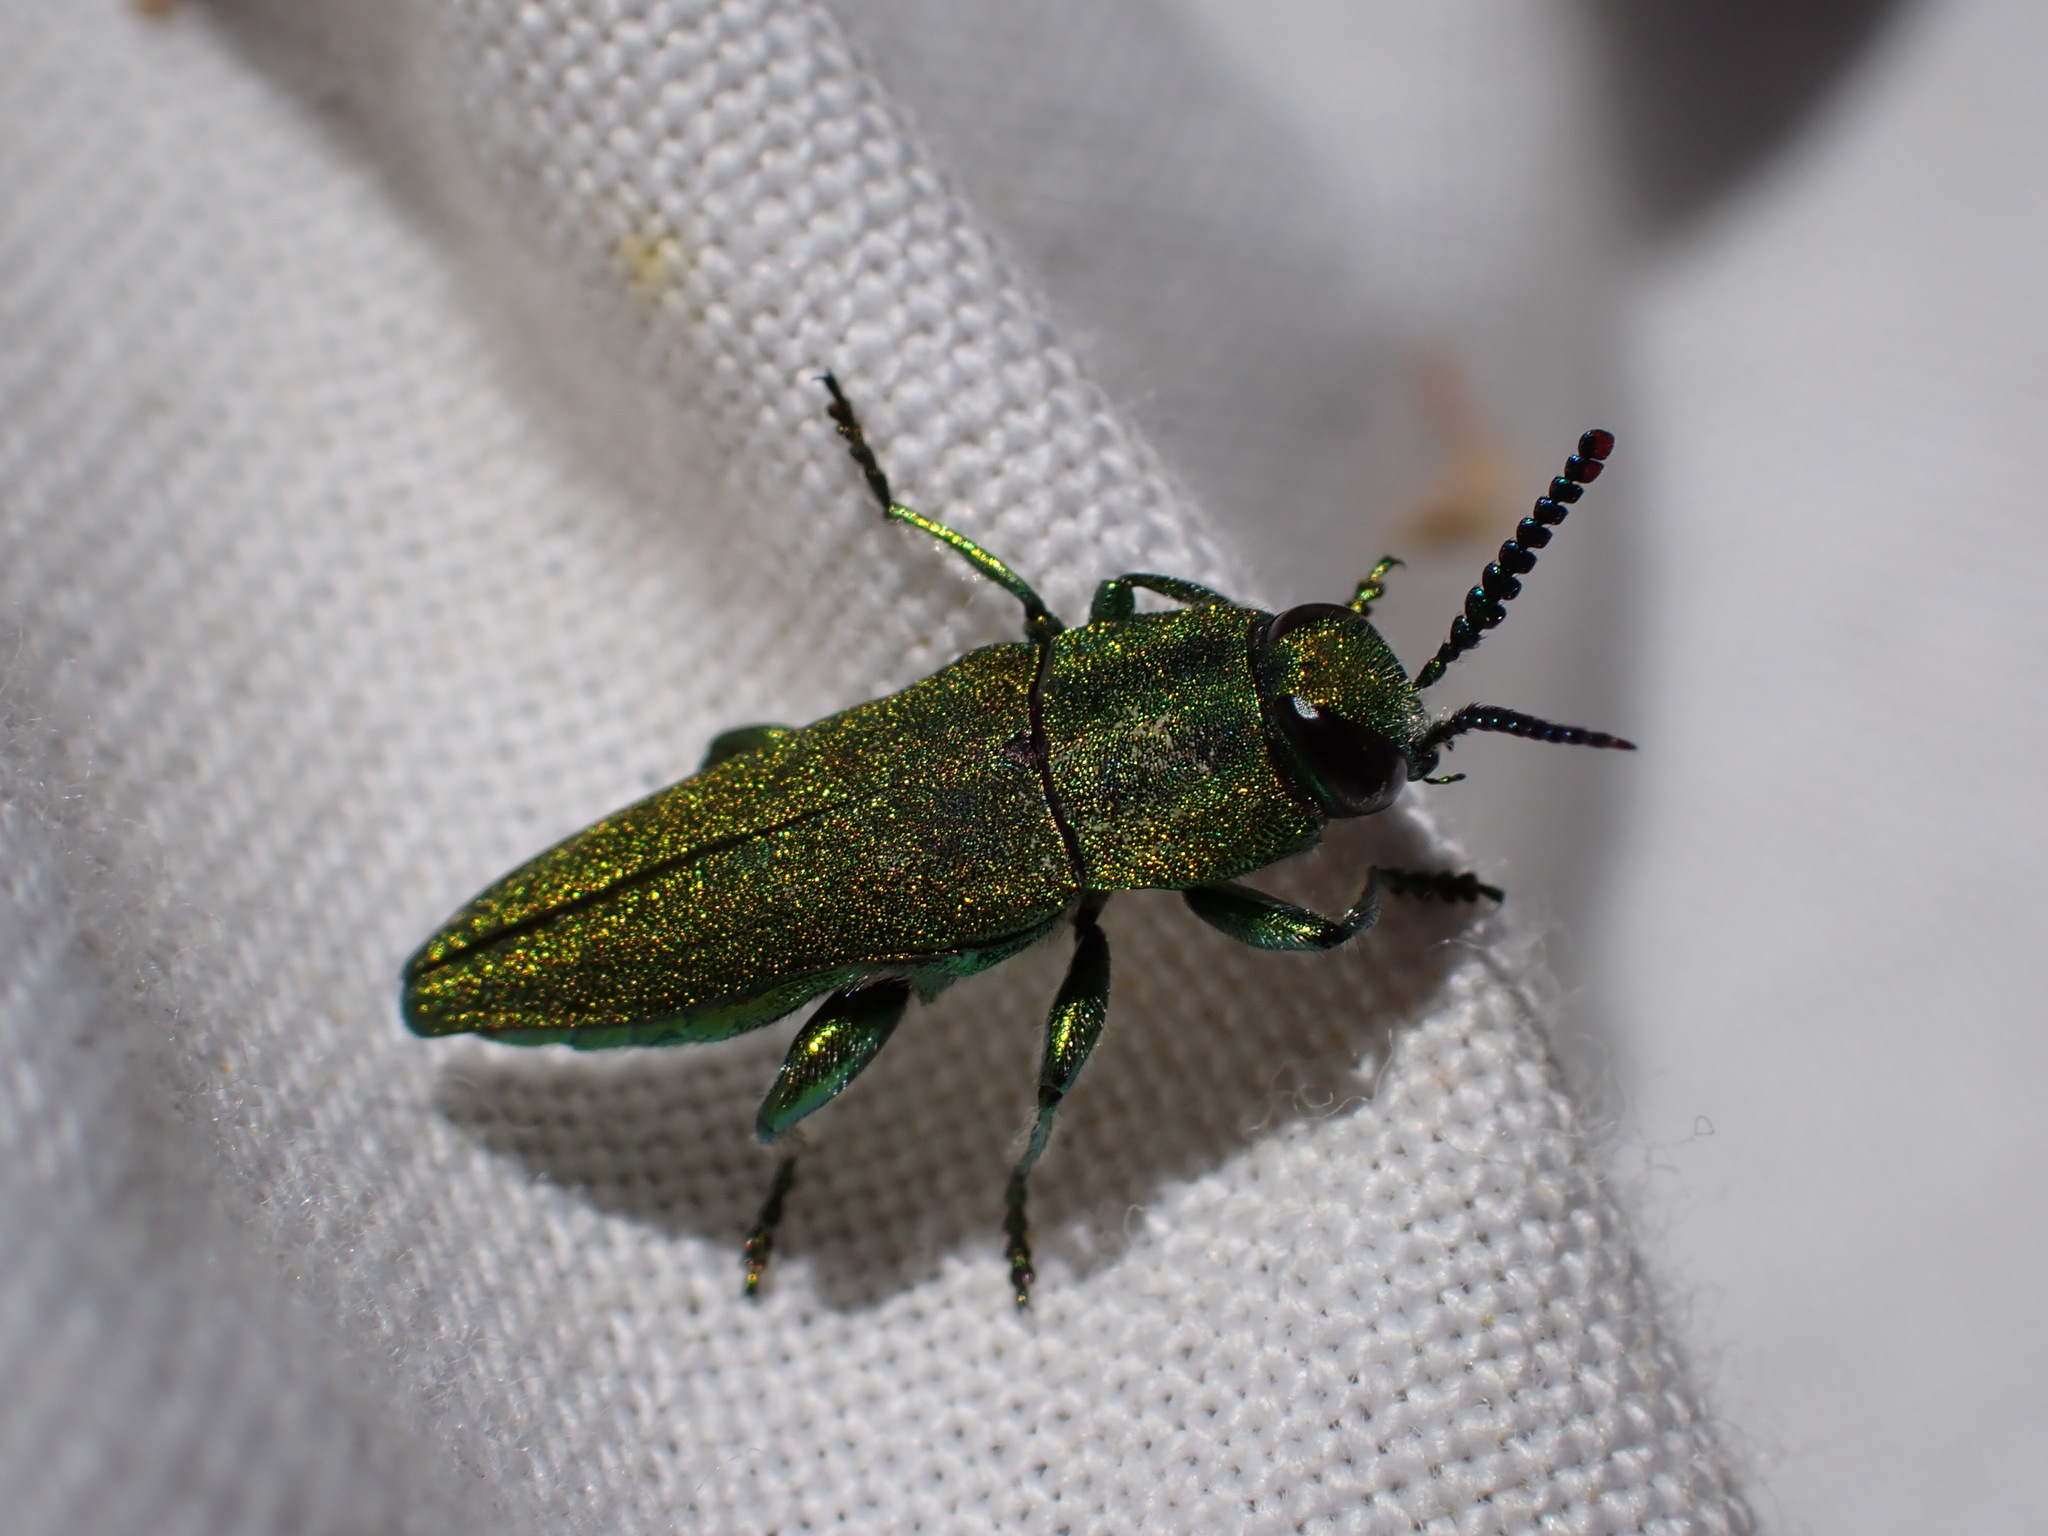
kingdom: Animalia
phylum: Arthropoda
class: Insecta
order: Coleoptera
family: Buprestidae
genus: Anthaxia
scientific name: Anthaxia hungarica
